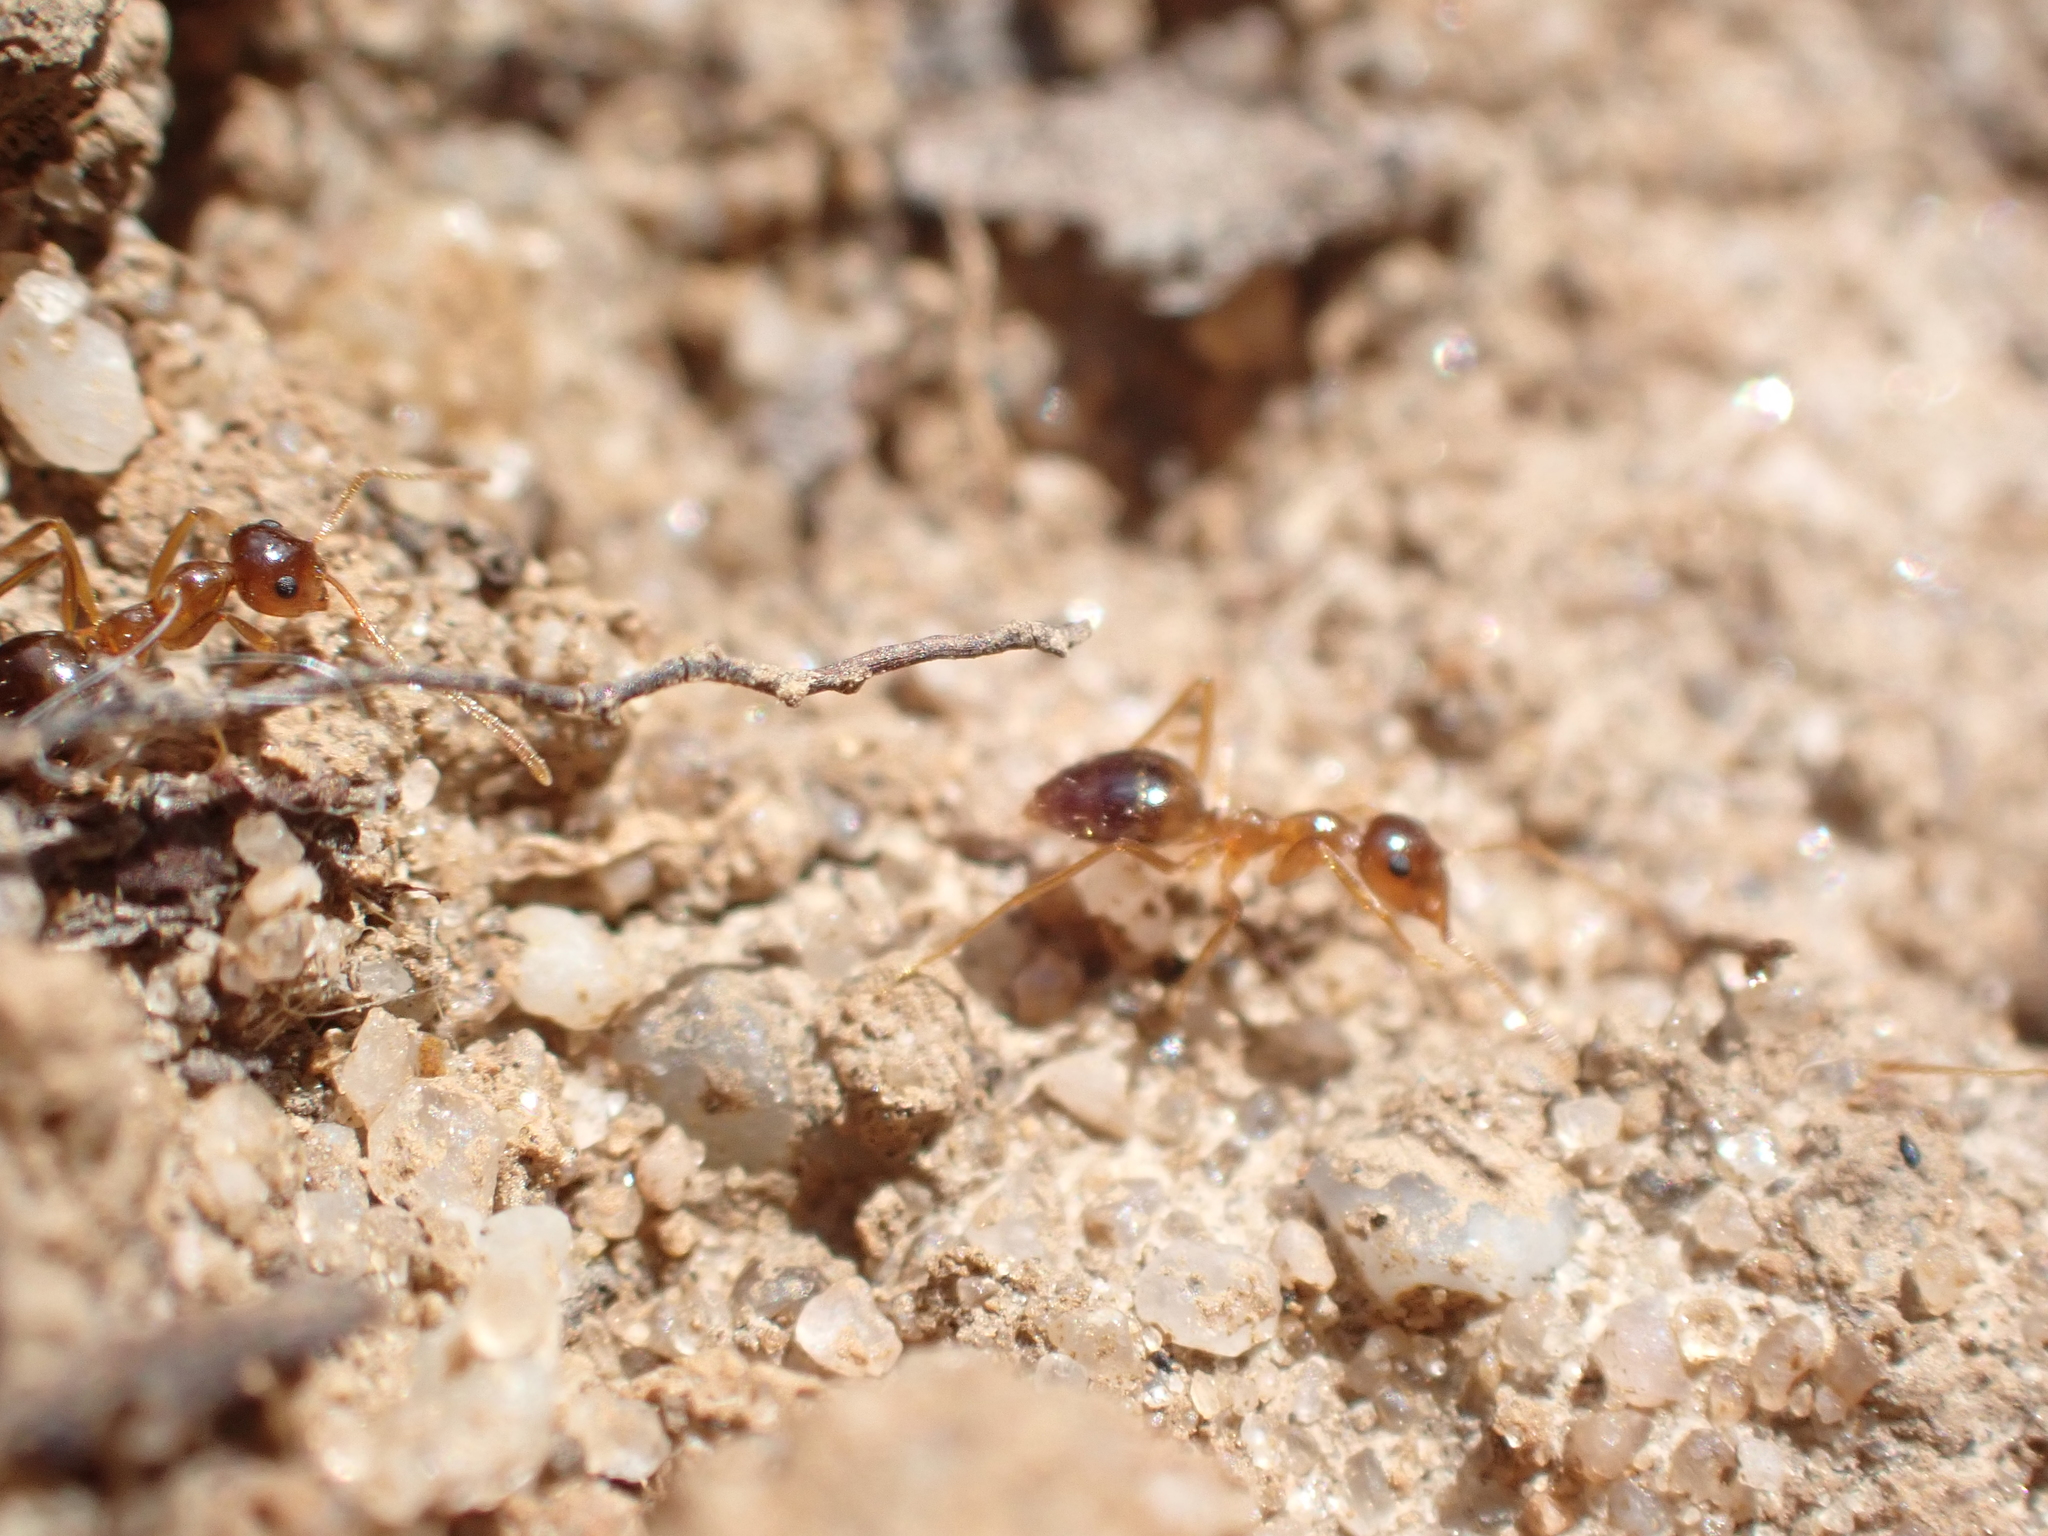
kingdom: Animalia
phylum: Arthropoda
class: Insecta
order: Hymenoptera
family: Formicidae
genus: Prenolepis
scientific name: Prenolepis imparis
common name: Small honey ant
